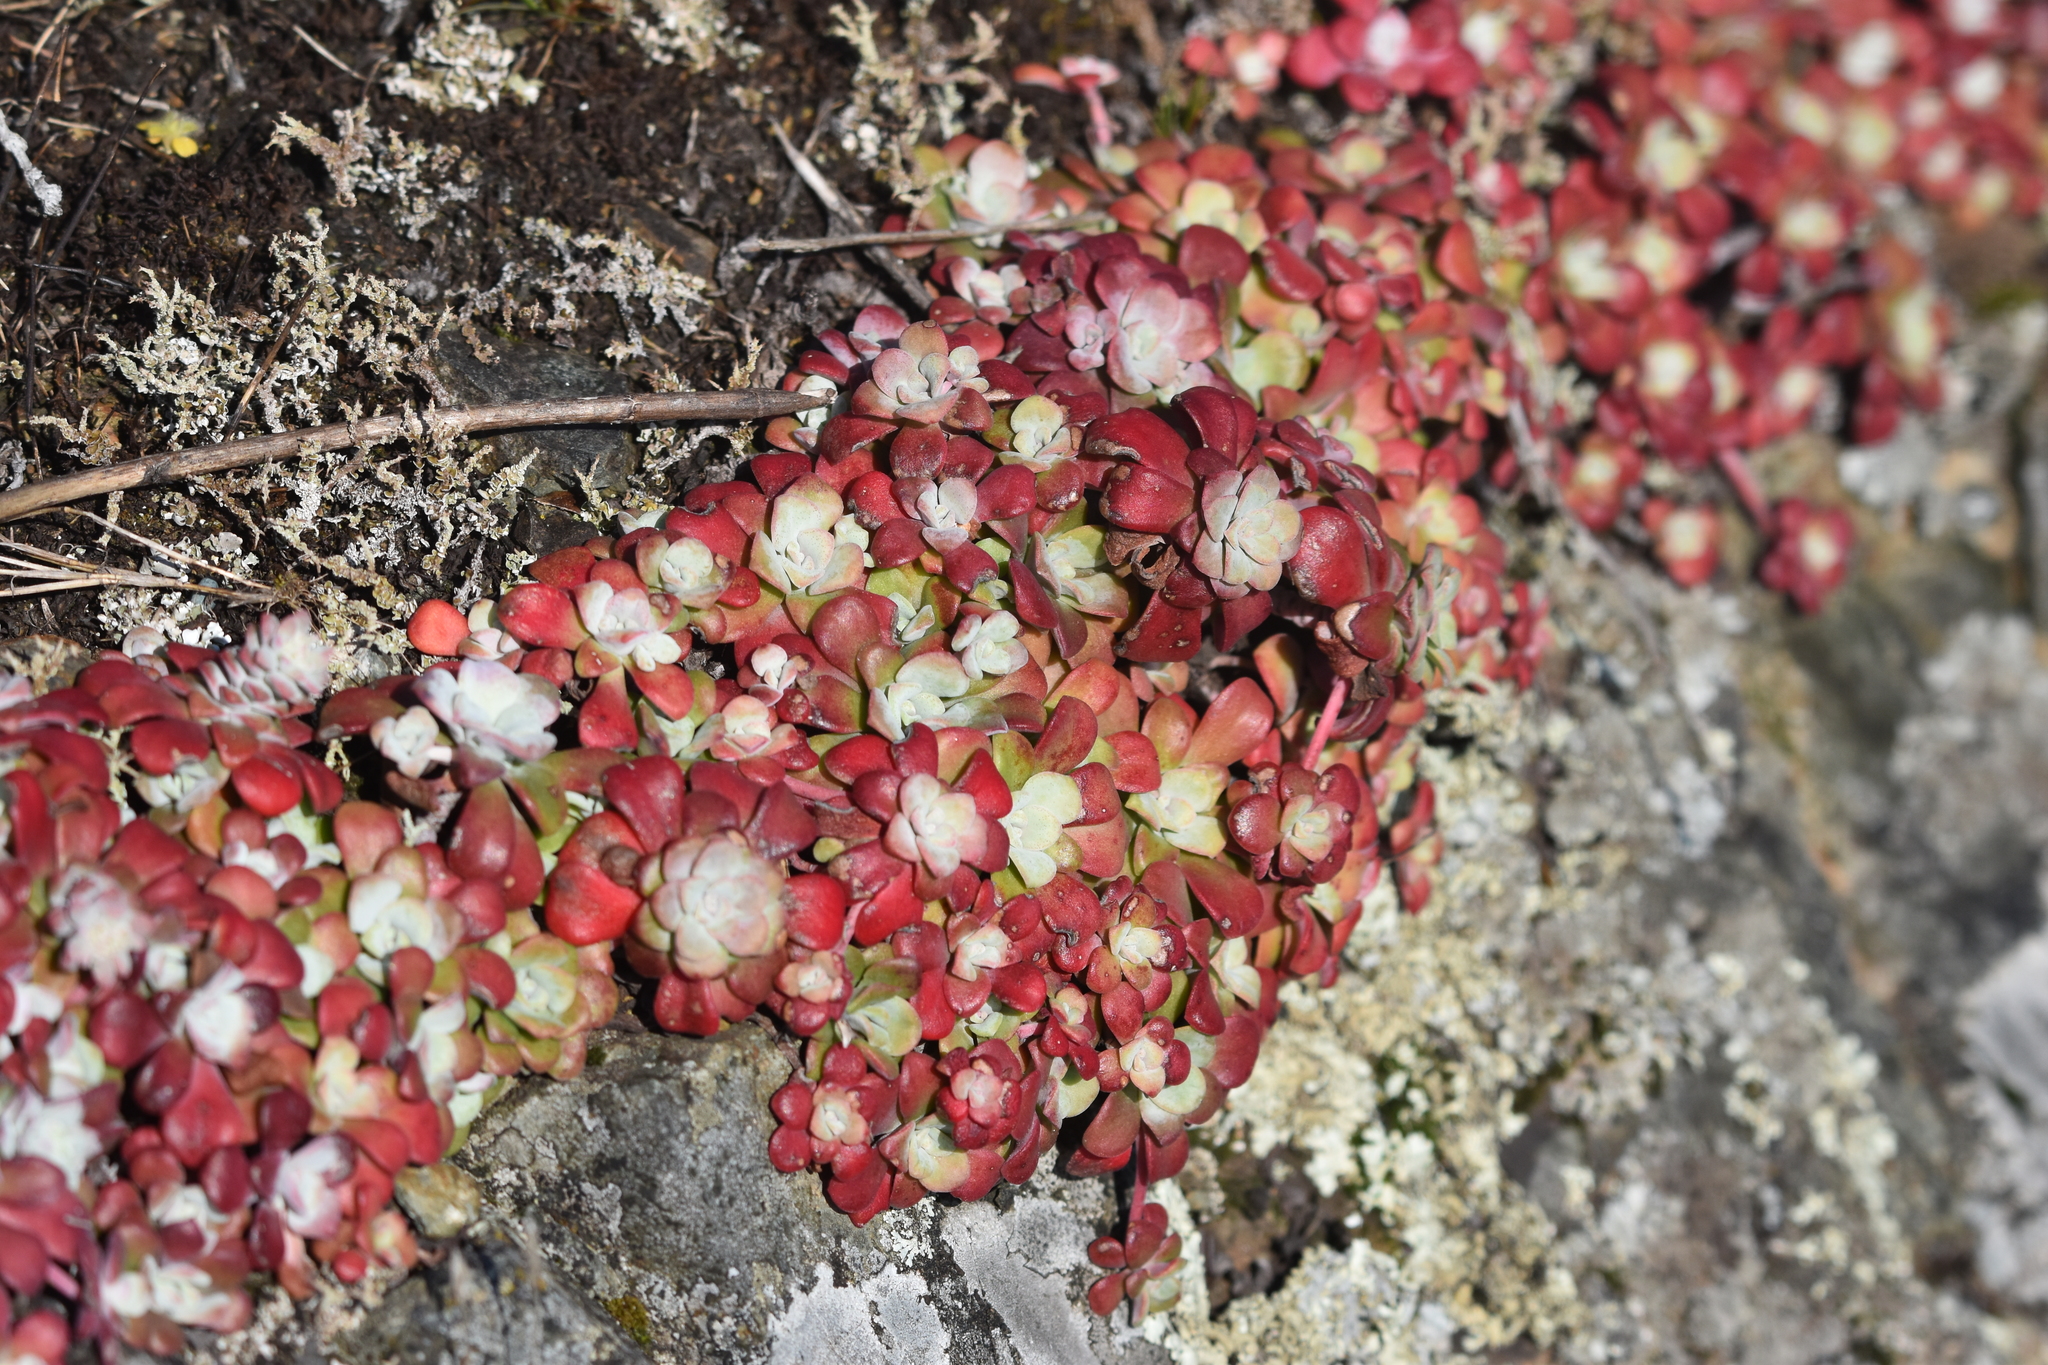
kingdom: Plantae
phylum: Tracheophyta
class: Magnoliopsida
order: Saxifragales
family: Crassulaceae
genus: Sedum
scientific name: Sedum spathulifolium
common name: Colorado stonecrop
